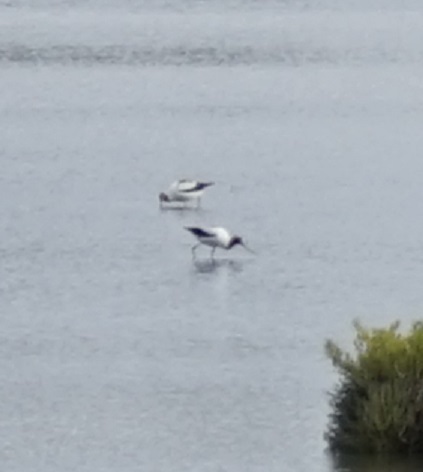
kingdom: Animalia
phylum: Chordata
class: Aves
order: Charadriiformes
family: Recurvirostridae
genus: Recurvirostra
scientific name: Recurvirostra novaehollandiae
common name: Red-necked avocet
